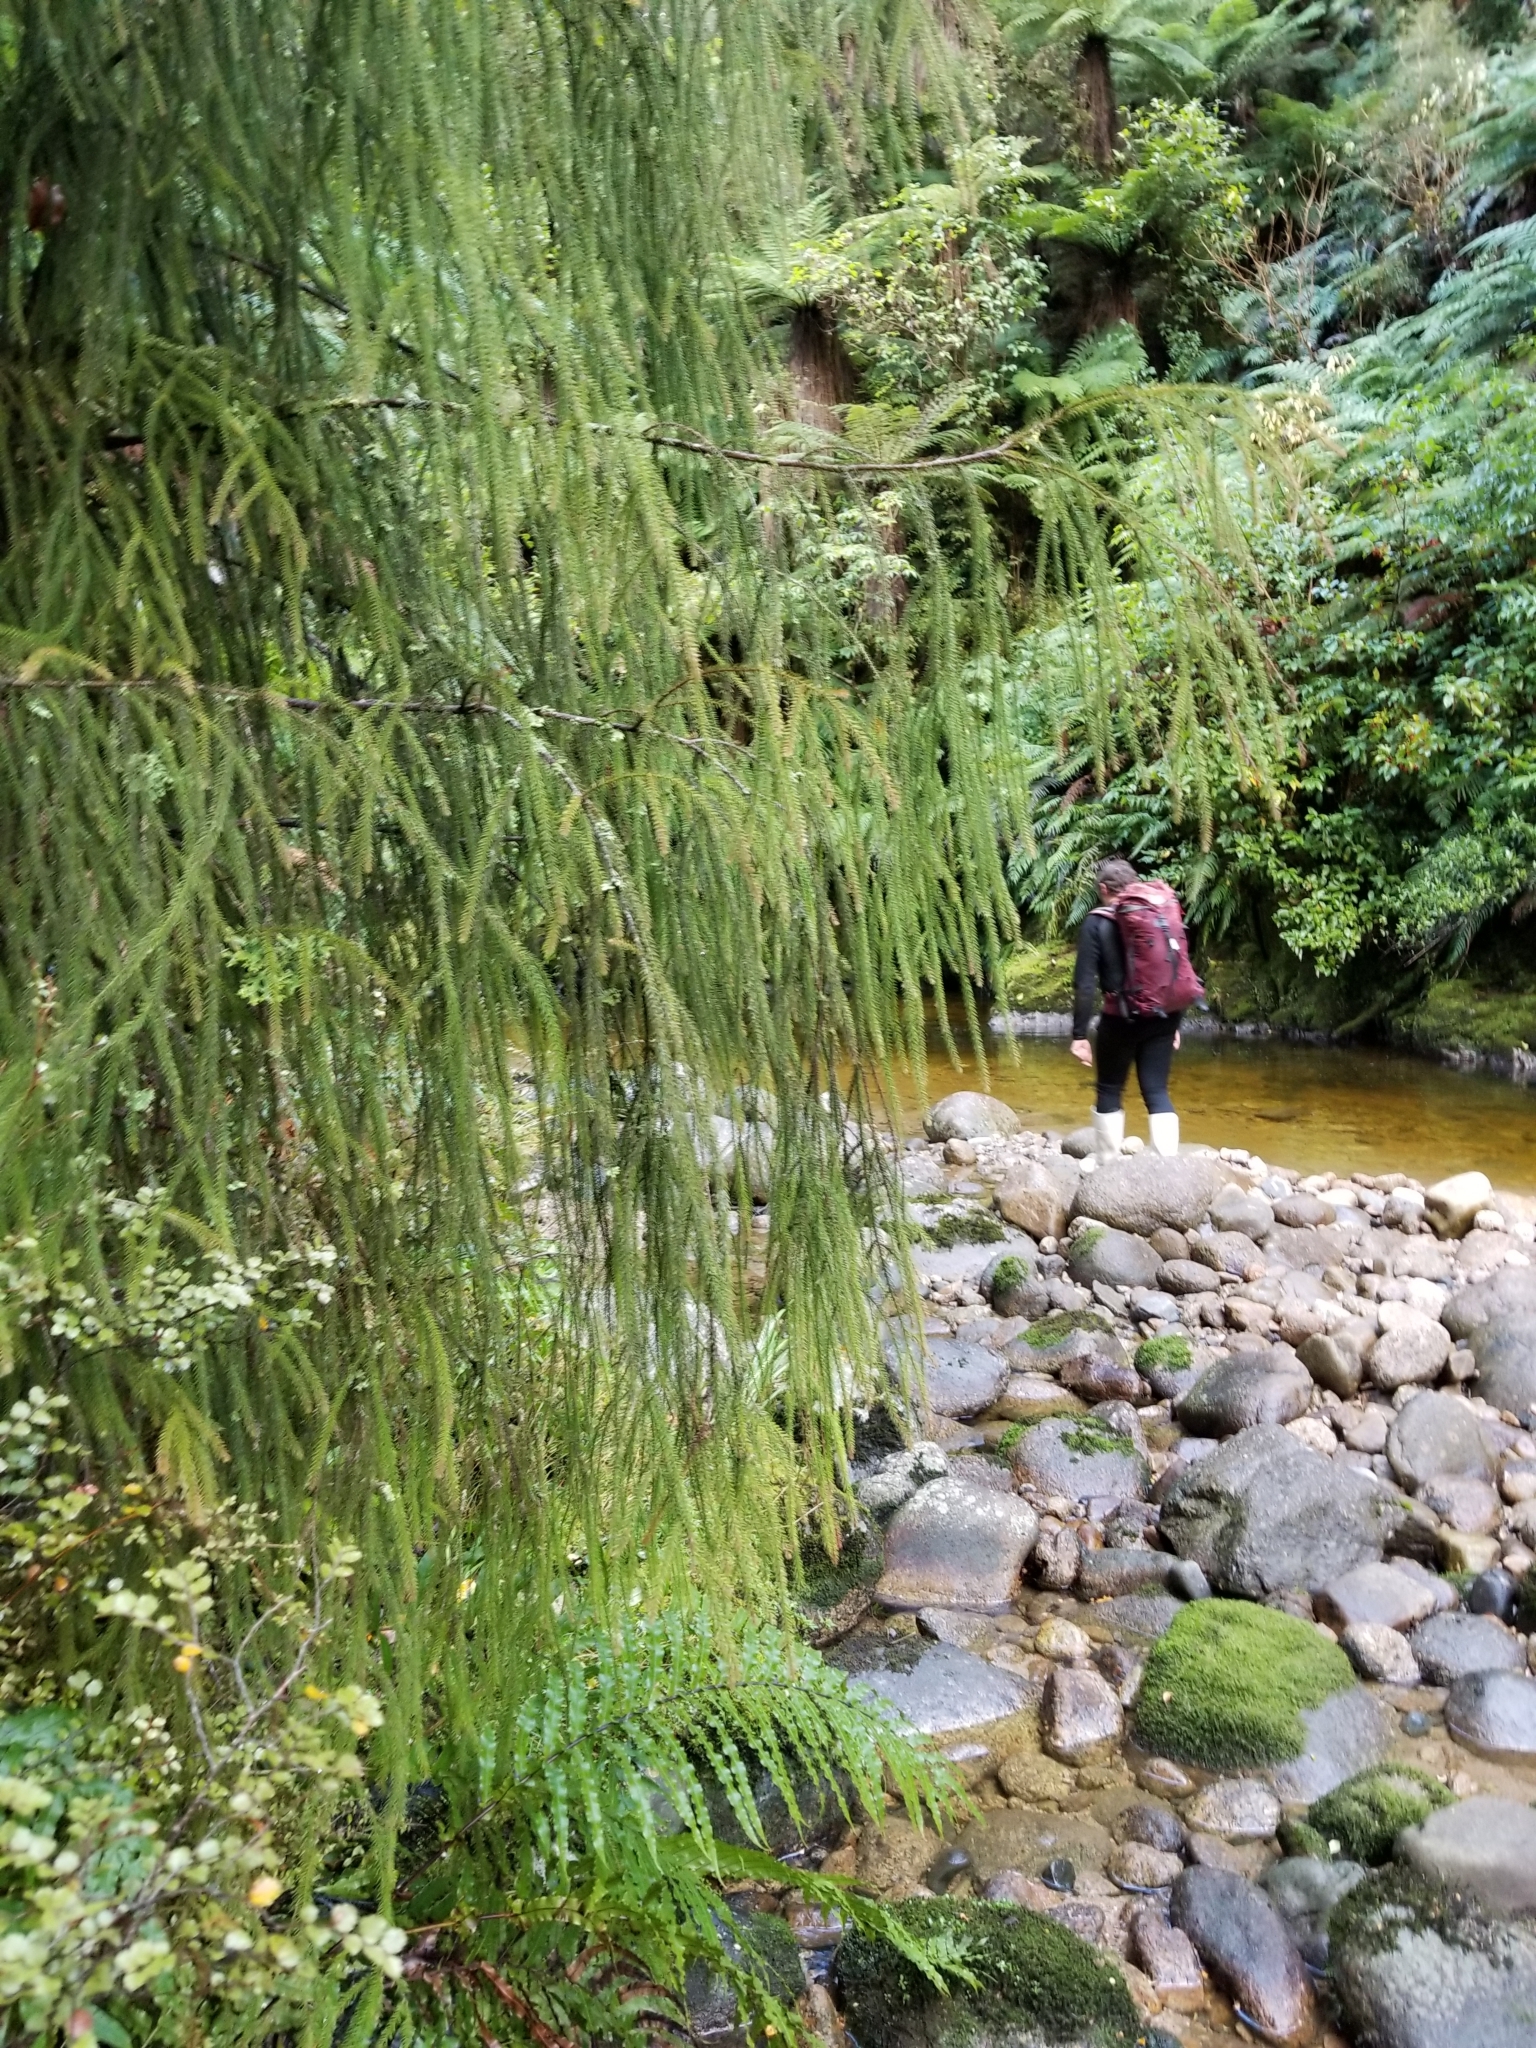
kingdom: Plantae
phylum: Tracheophyta
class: Pinopsida
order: Pinales
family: Podocarpaceae
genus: Dacrydium
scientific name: Dacrydium cupressinum
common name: Red pine
